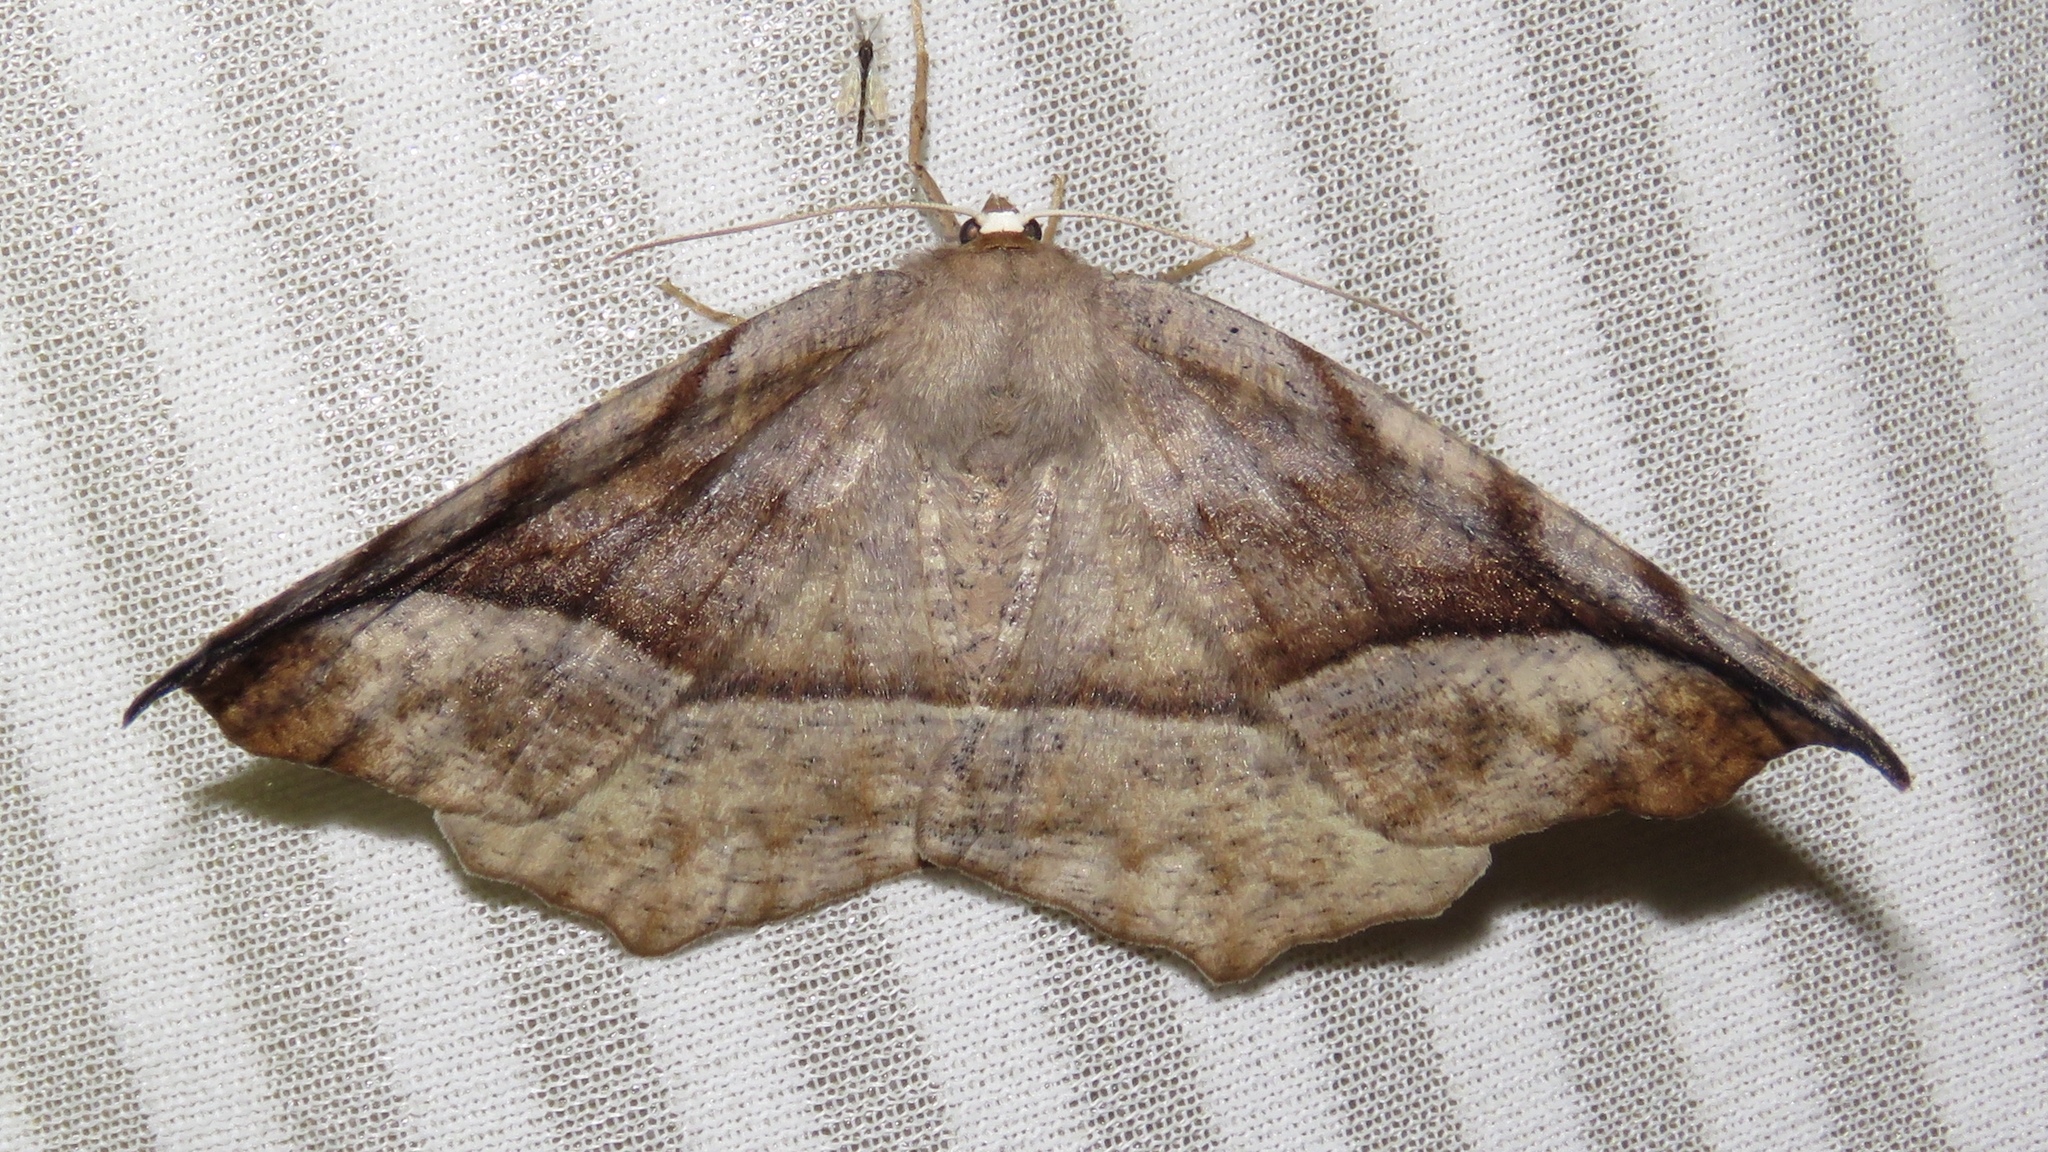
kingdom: Animalia
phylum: Arthropoda
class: Insecta
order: Lepidoptera
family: Geometridae
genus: Eutrapela
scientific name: Eutrapela clemataria
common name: Curved-toothed geometer
